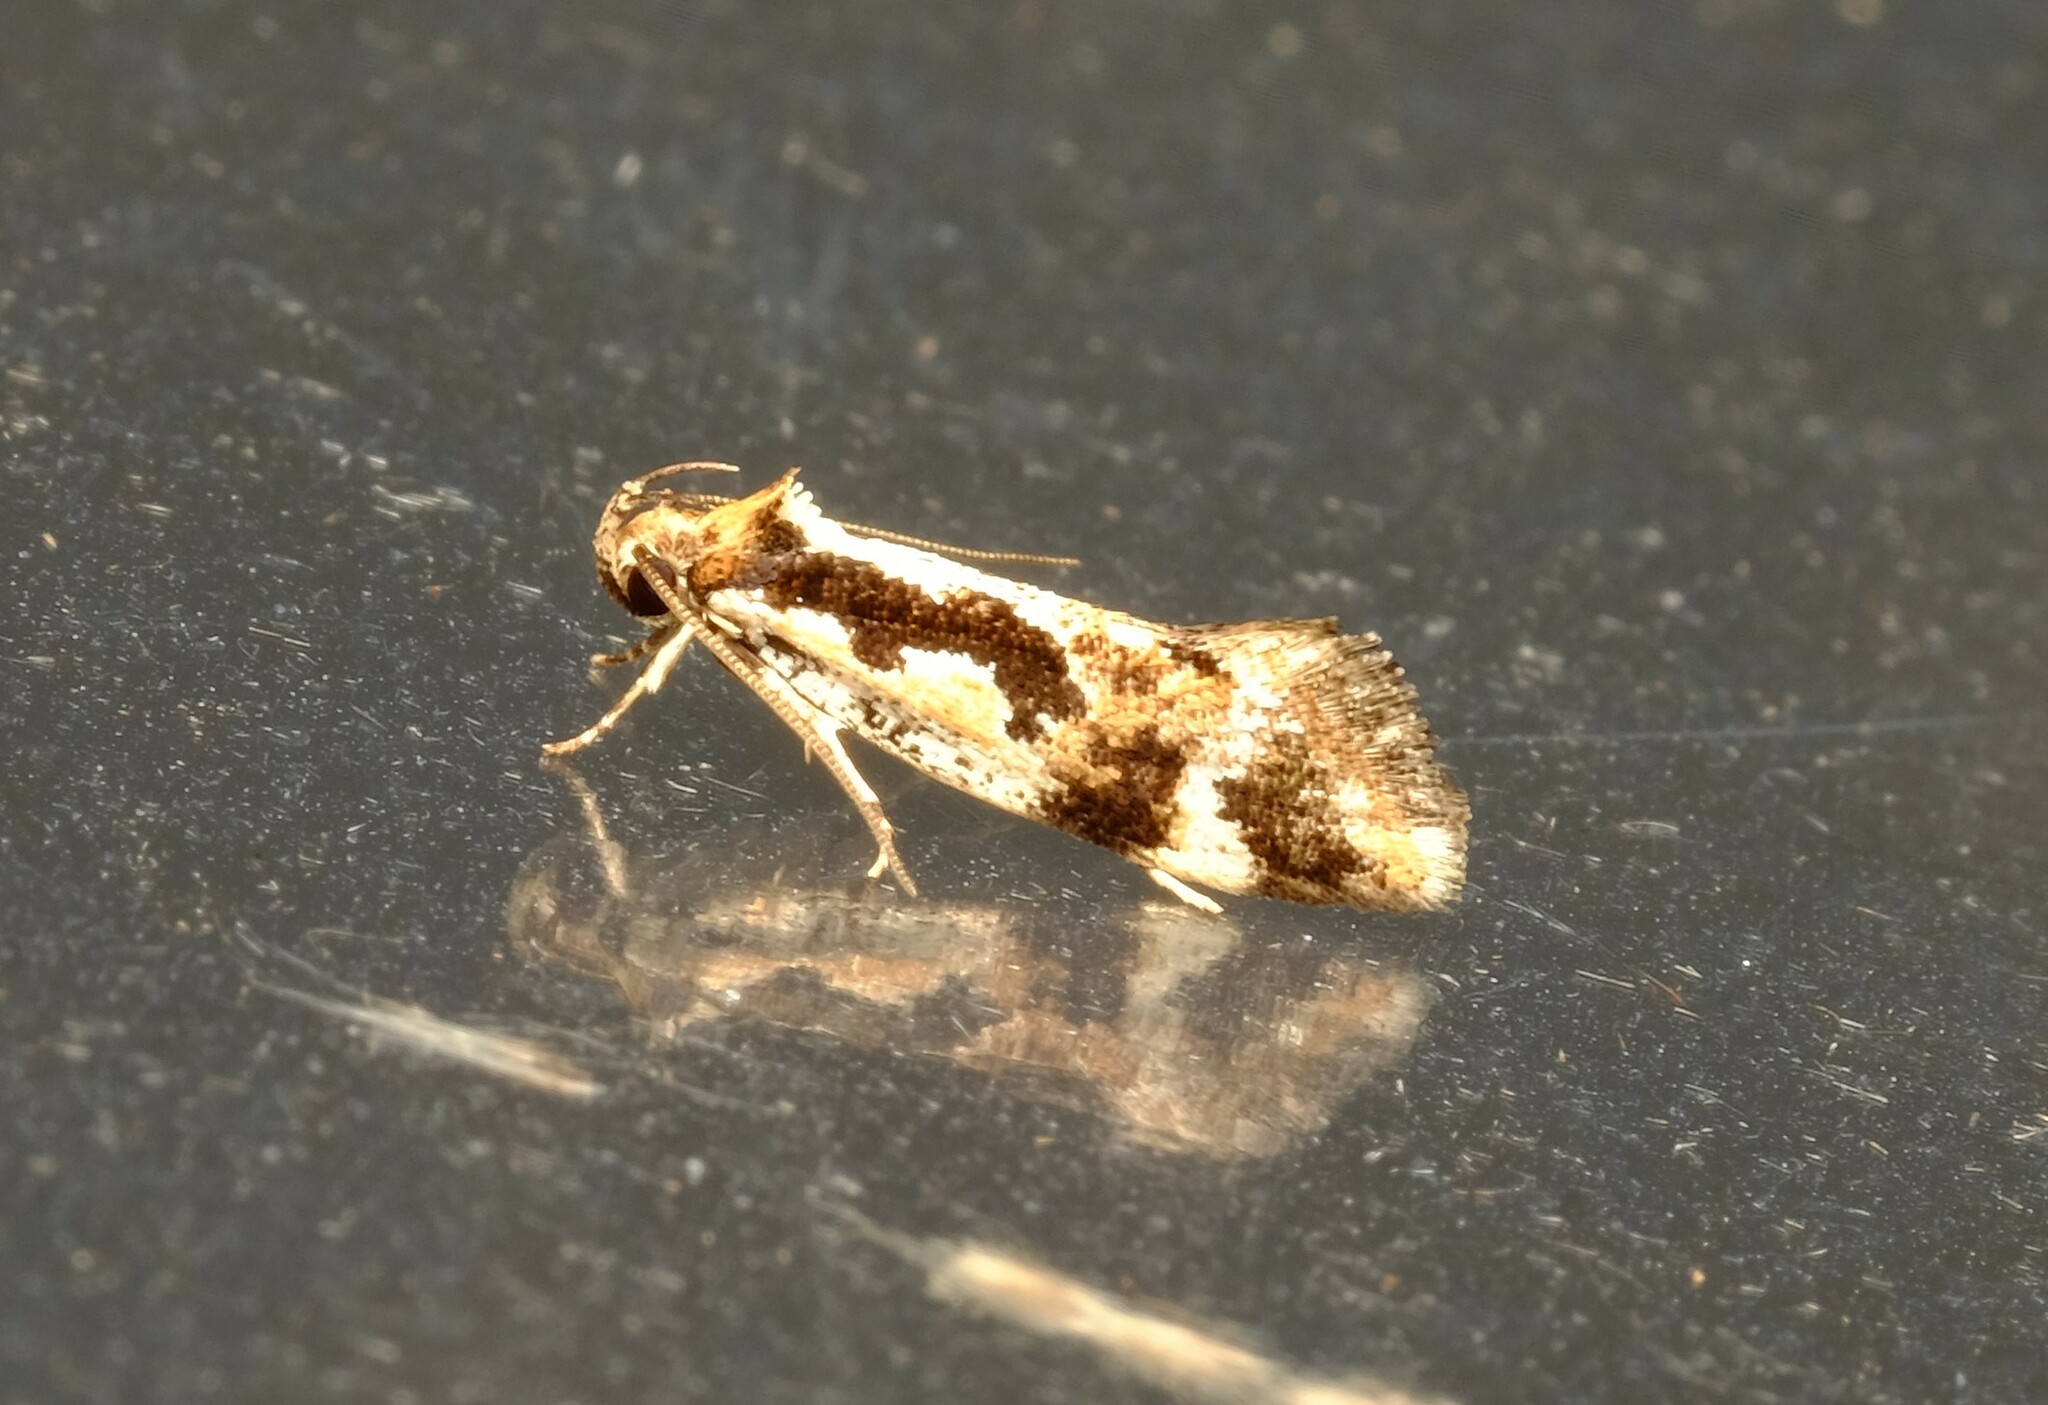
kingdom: Animalia
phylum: Arthropoda
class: Insecta
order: Lepidoptera
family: Oecophoridae
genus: Machetis
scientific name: Machetis versatrix
